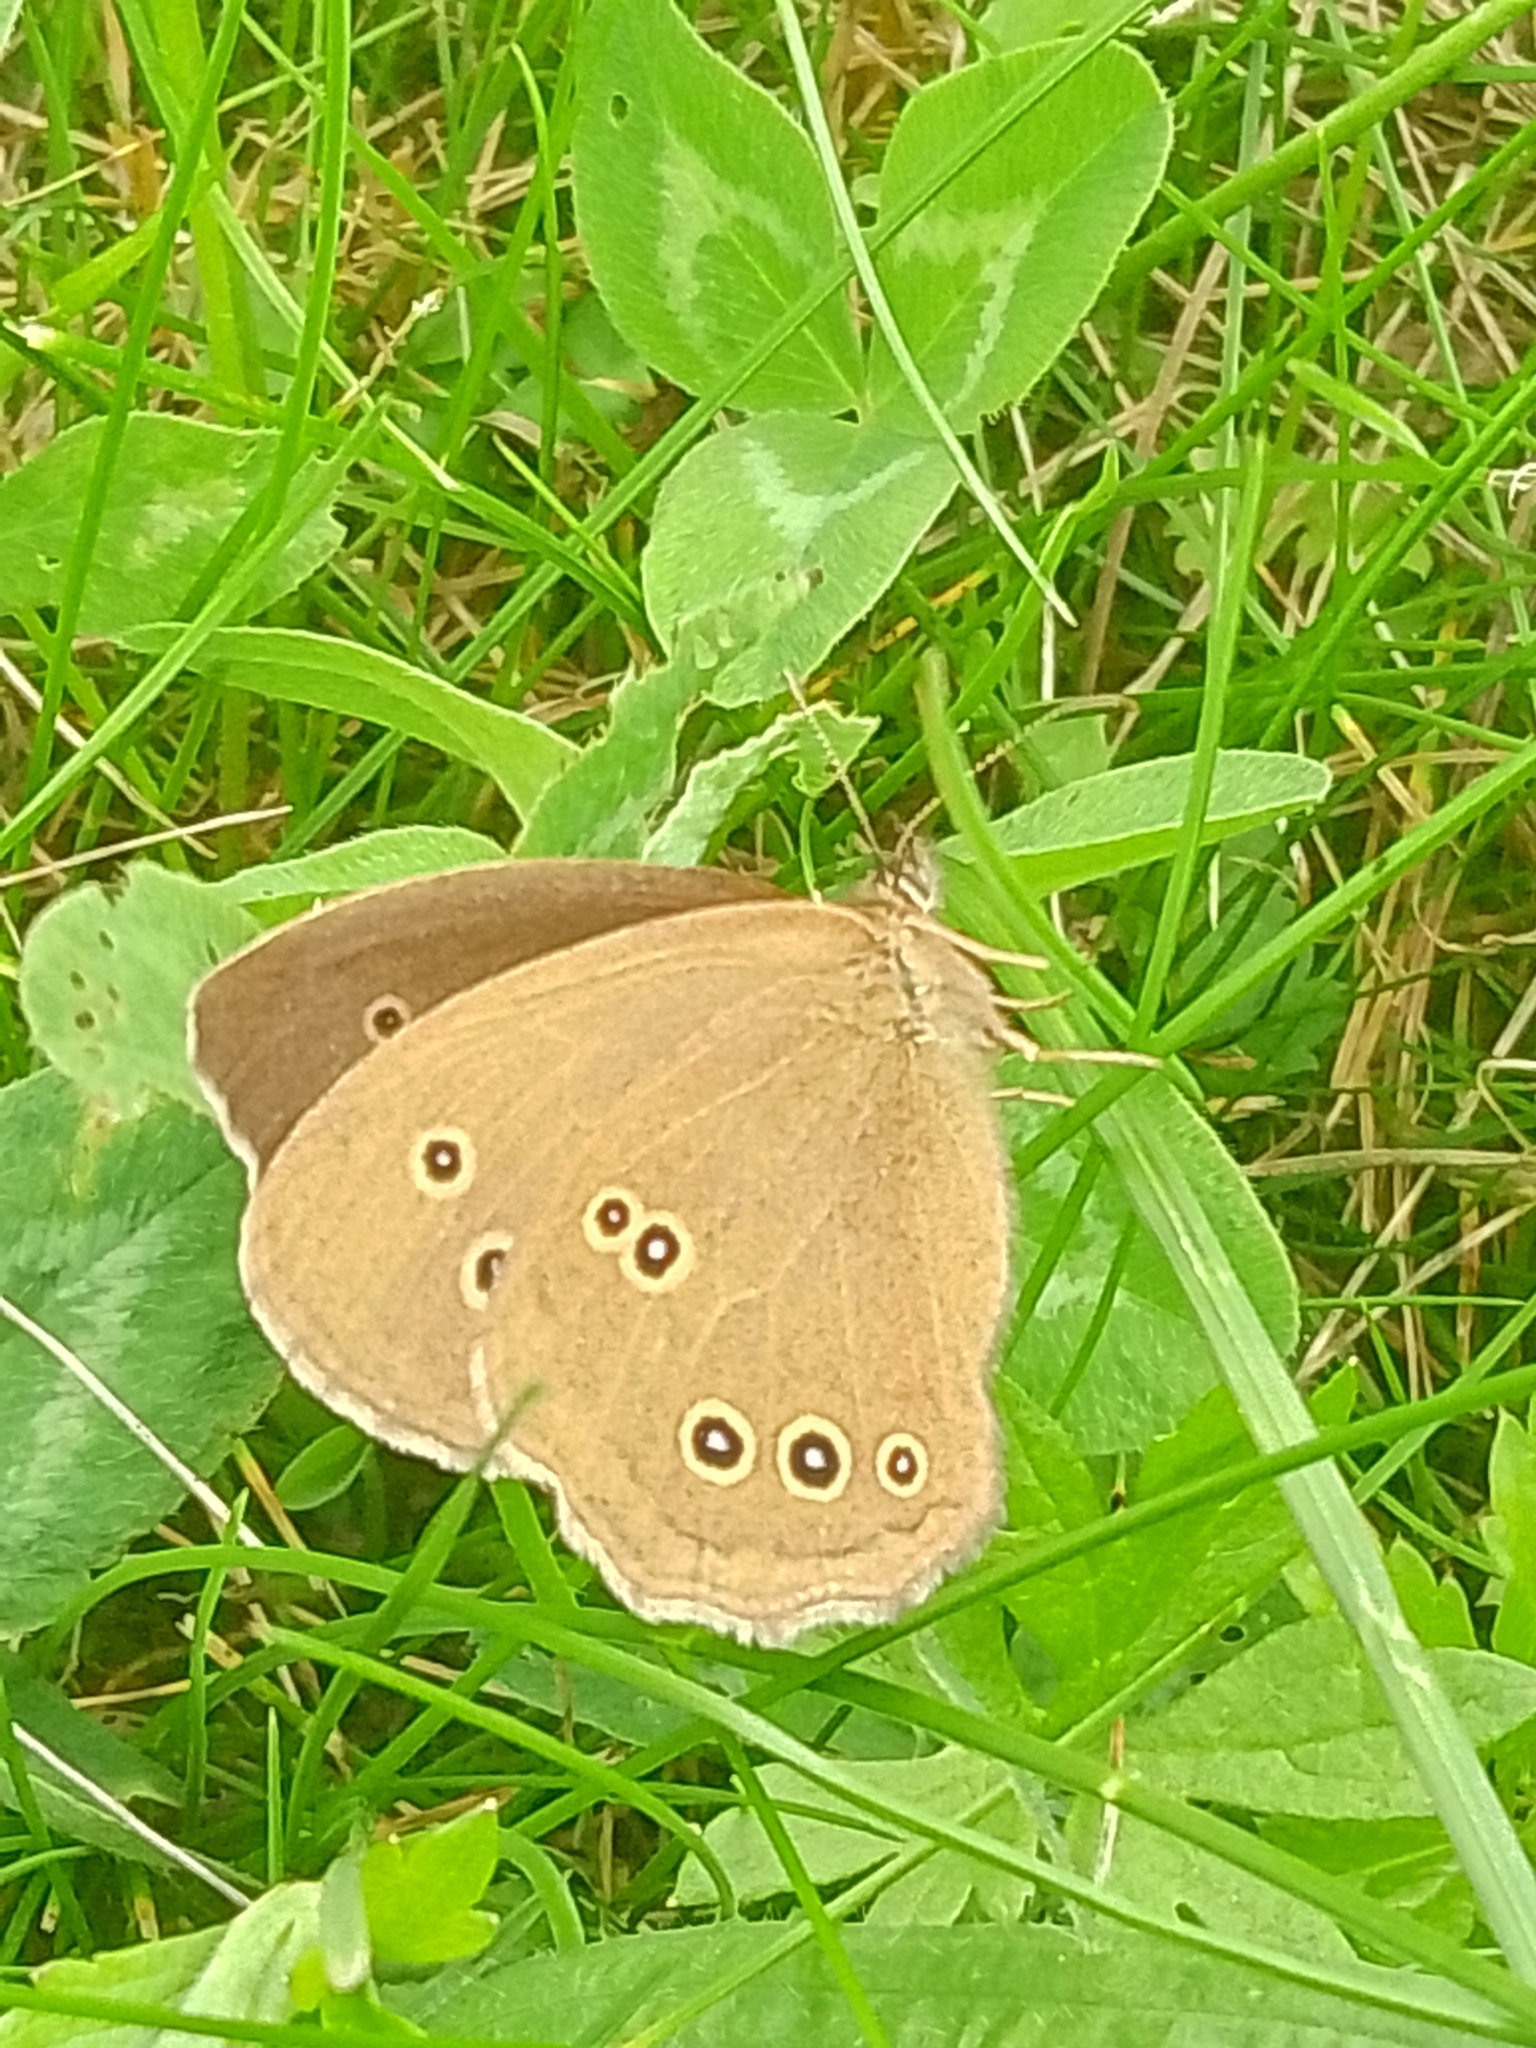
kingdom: Animalia
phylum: Arthropoda
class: Insecta
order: Lepidoptera
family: Nymphalidae
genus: Aphantopus
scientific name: Aphantopus hyperantus
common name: Ringlet
